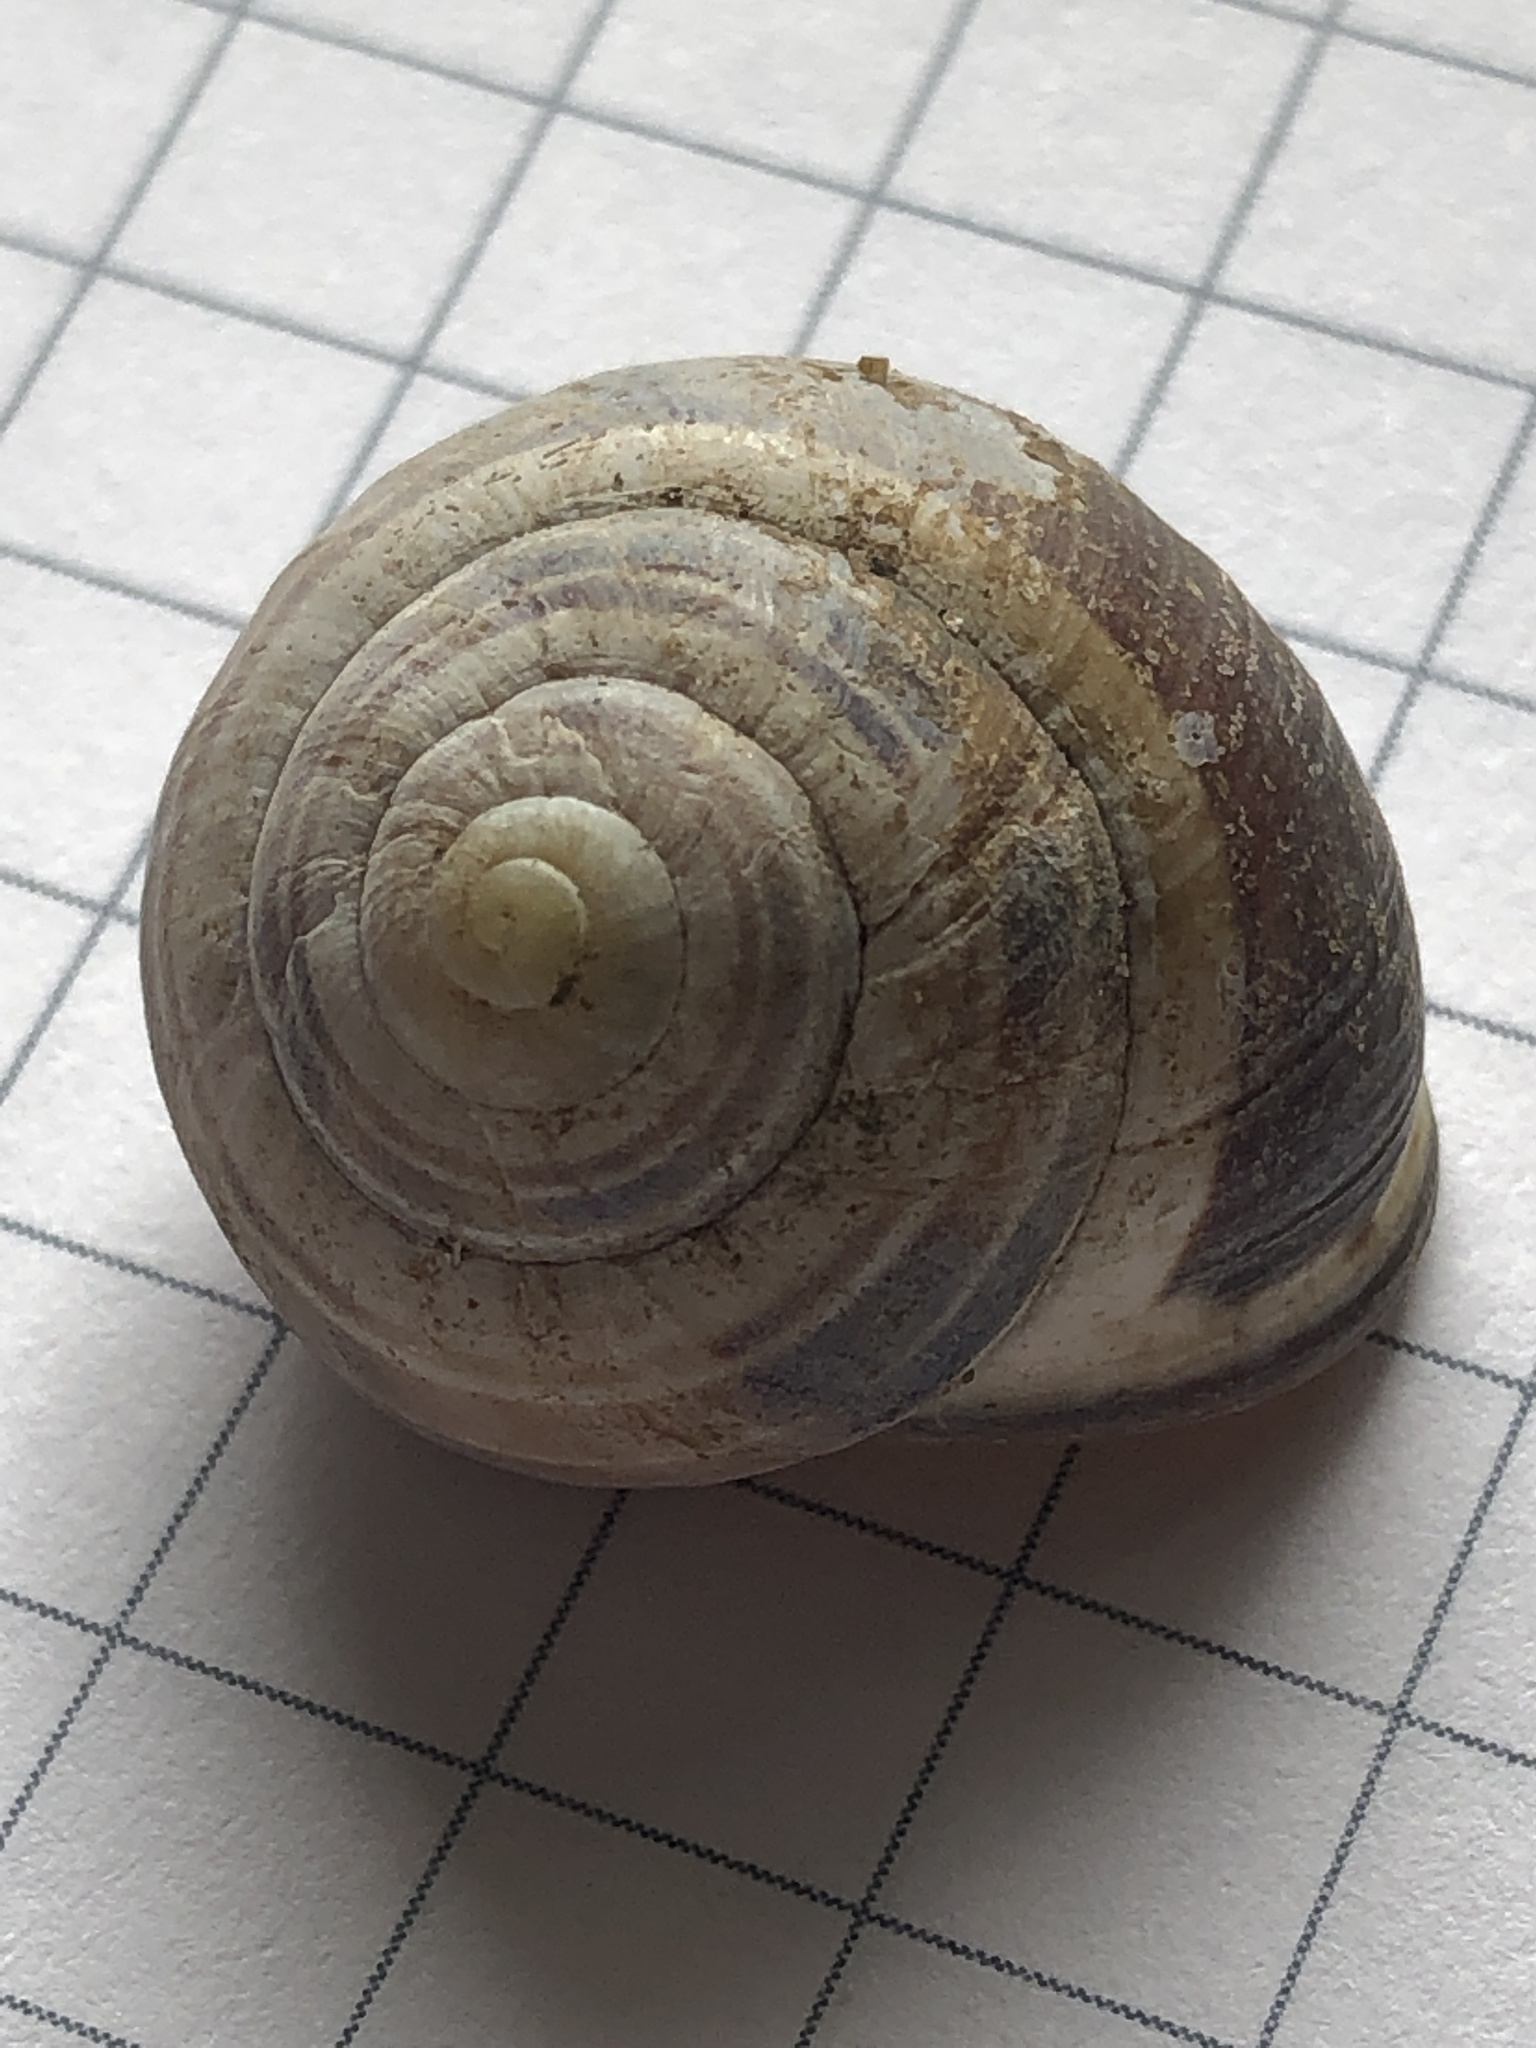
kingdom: Animalia
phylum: Mollusca
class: Gastropoda
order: Stylommatophora
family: Helicidae
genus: Cepaea
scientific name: Cepaea nemoralis
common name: Grovesnail
